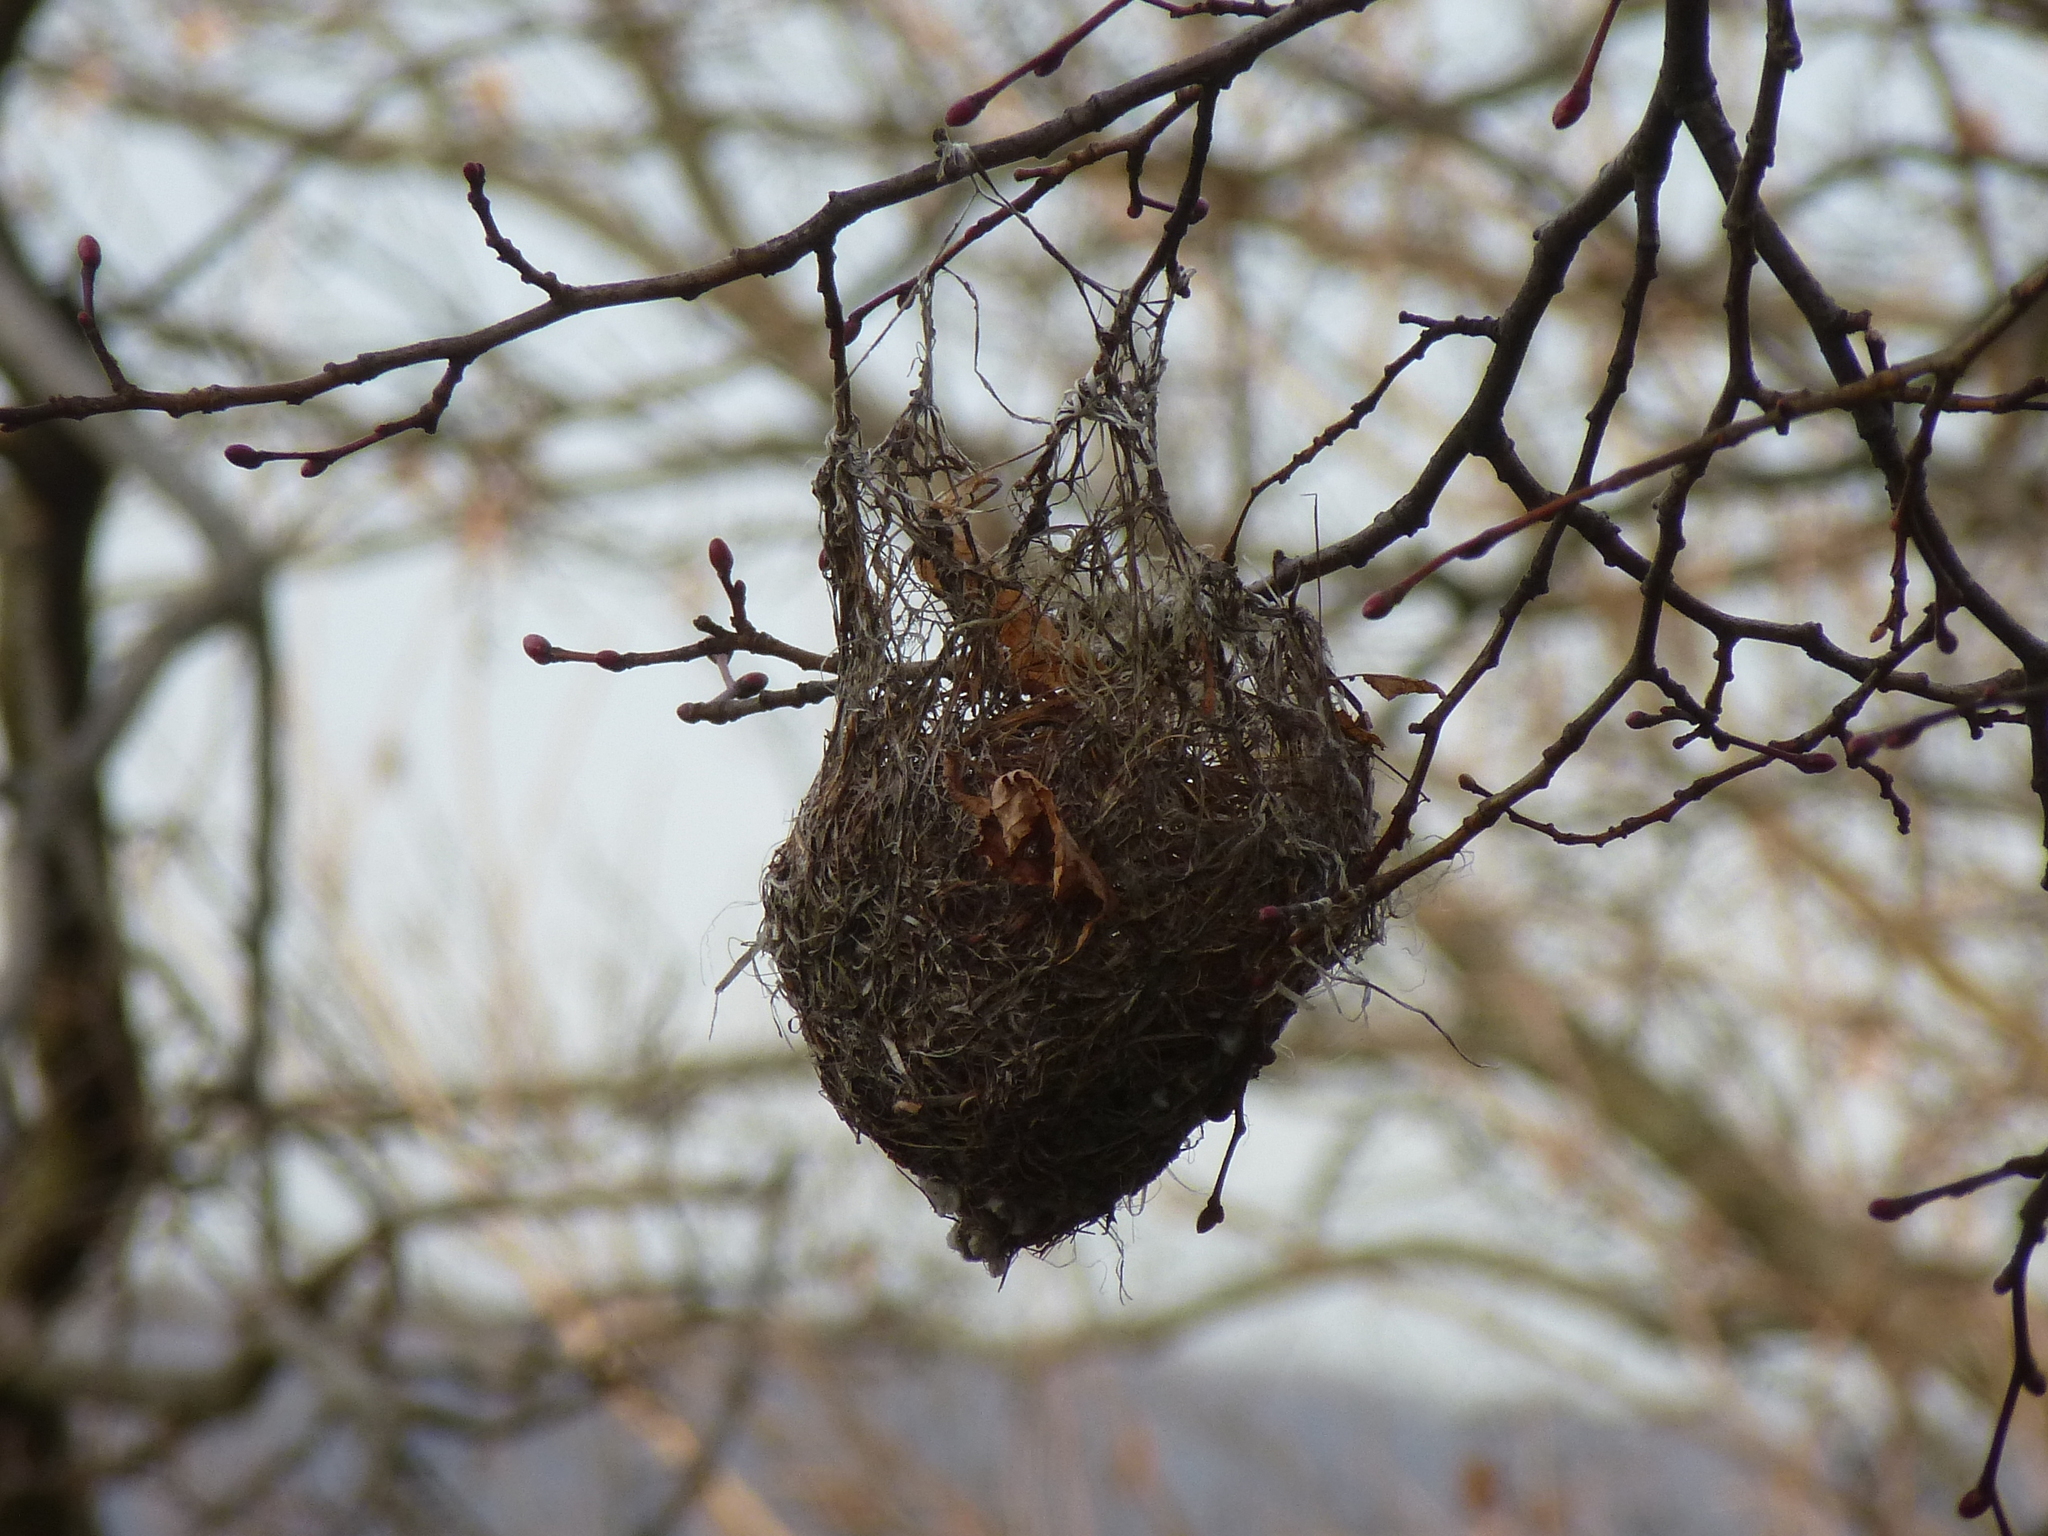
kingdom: Animalia
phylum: Chordata
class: Aves
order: Passeriformes
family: Icteridae
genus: Icterus
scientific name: Icterus galbula
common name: Baltimore oriole
